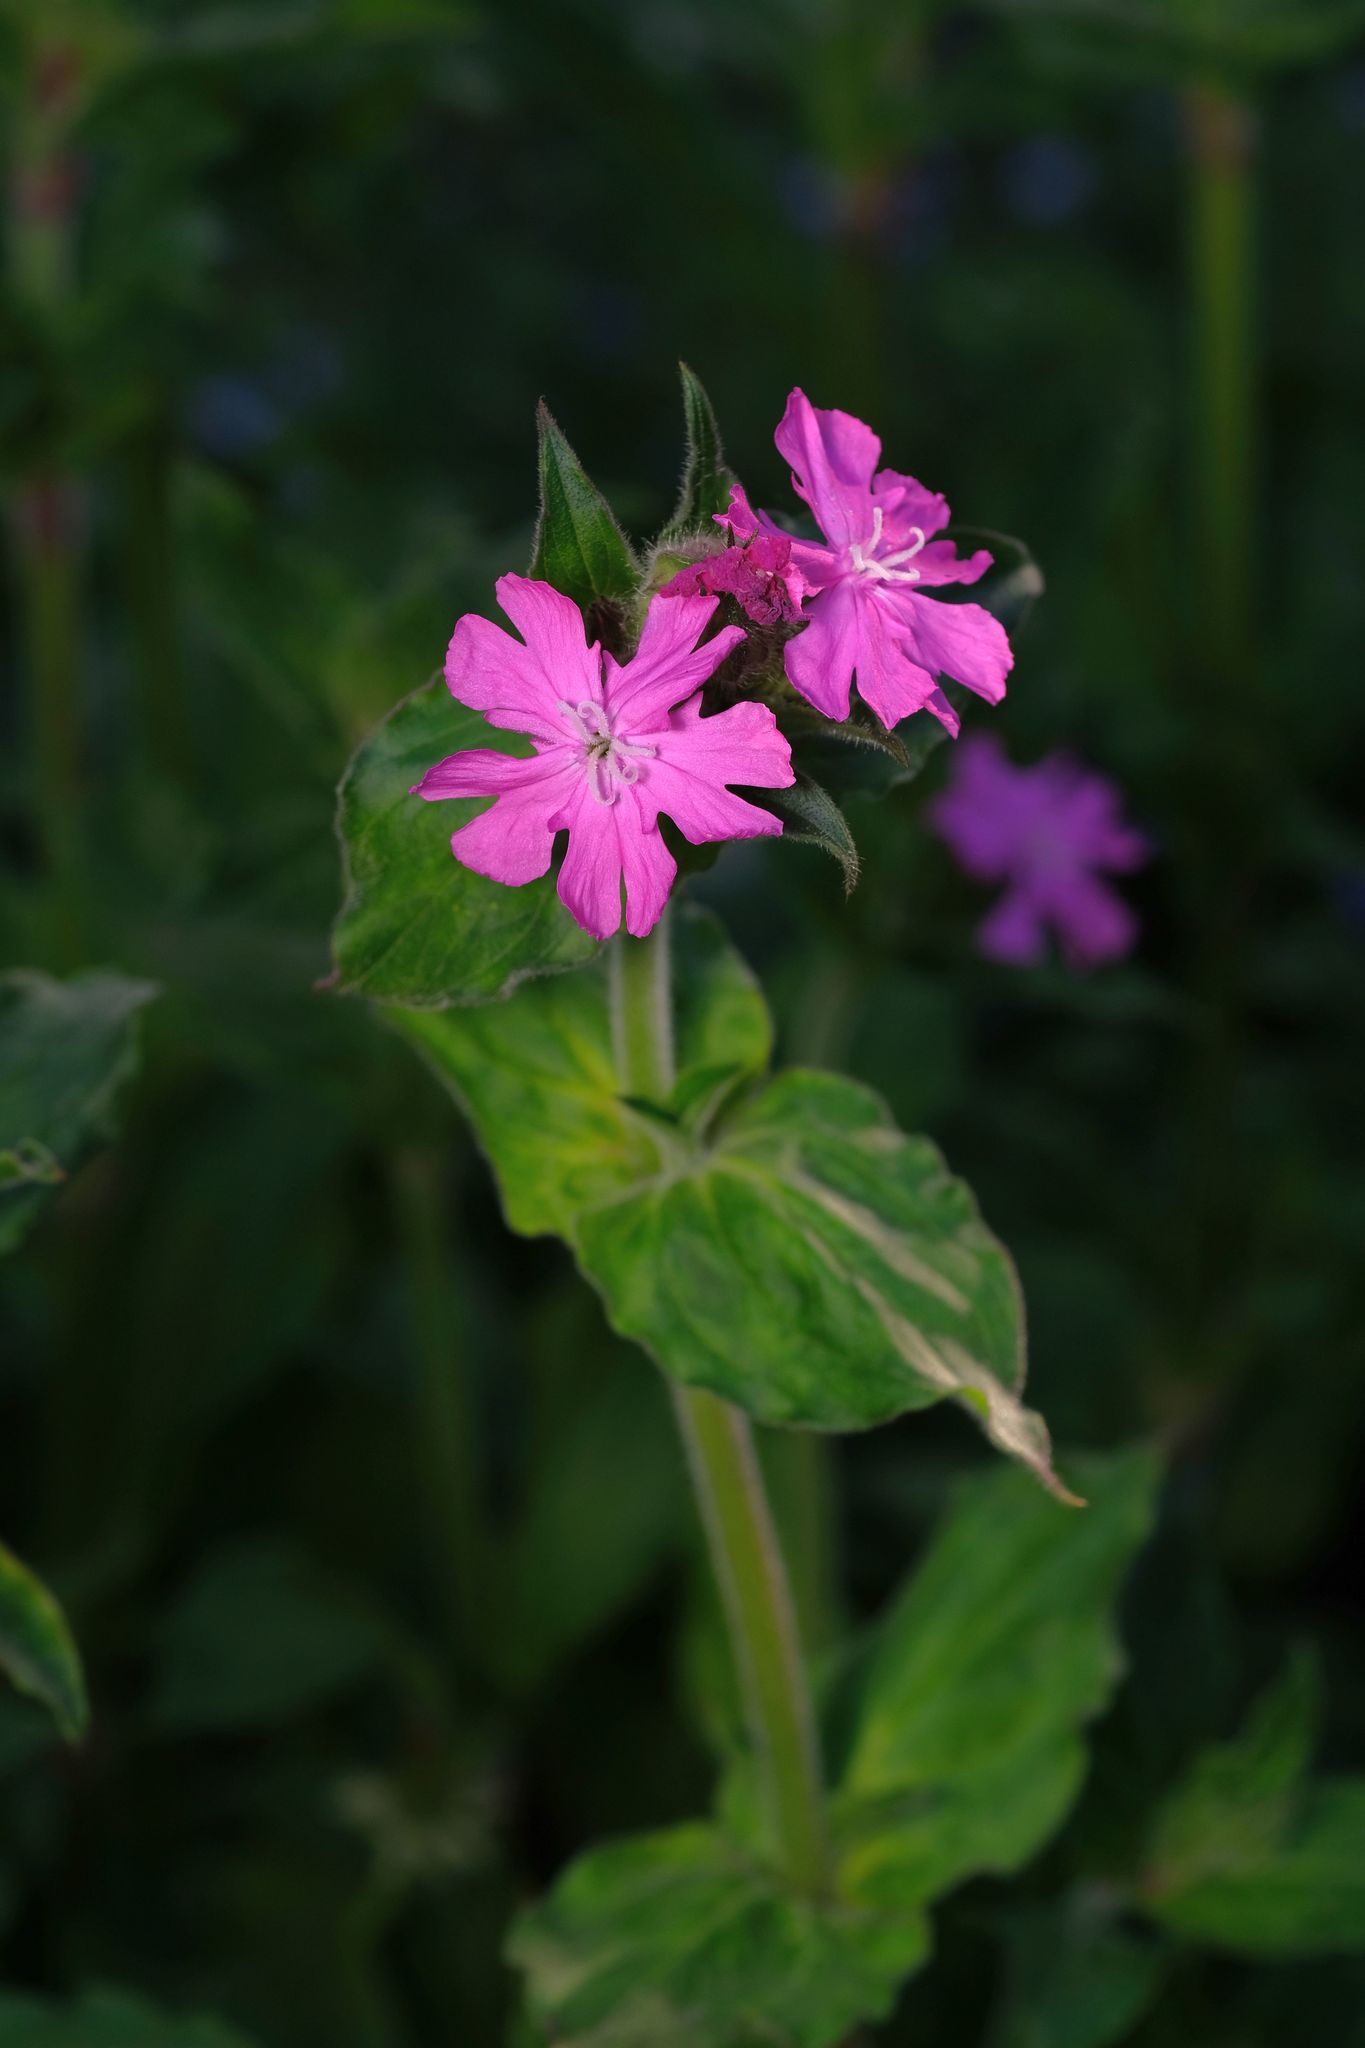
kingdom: Plantae
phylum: Tracheophyta
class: Magnoliopsida
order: Caryophyllales
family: Caryophyllaceae
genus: Silene
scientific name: Silene dioica
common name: Red campion
